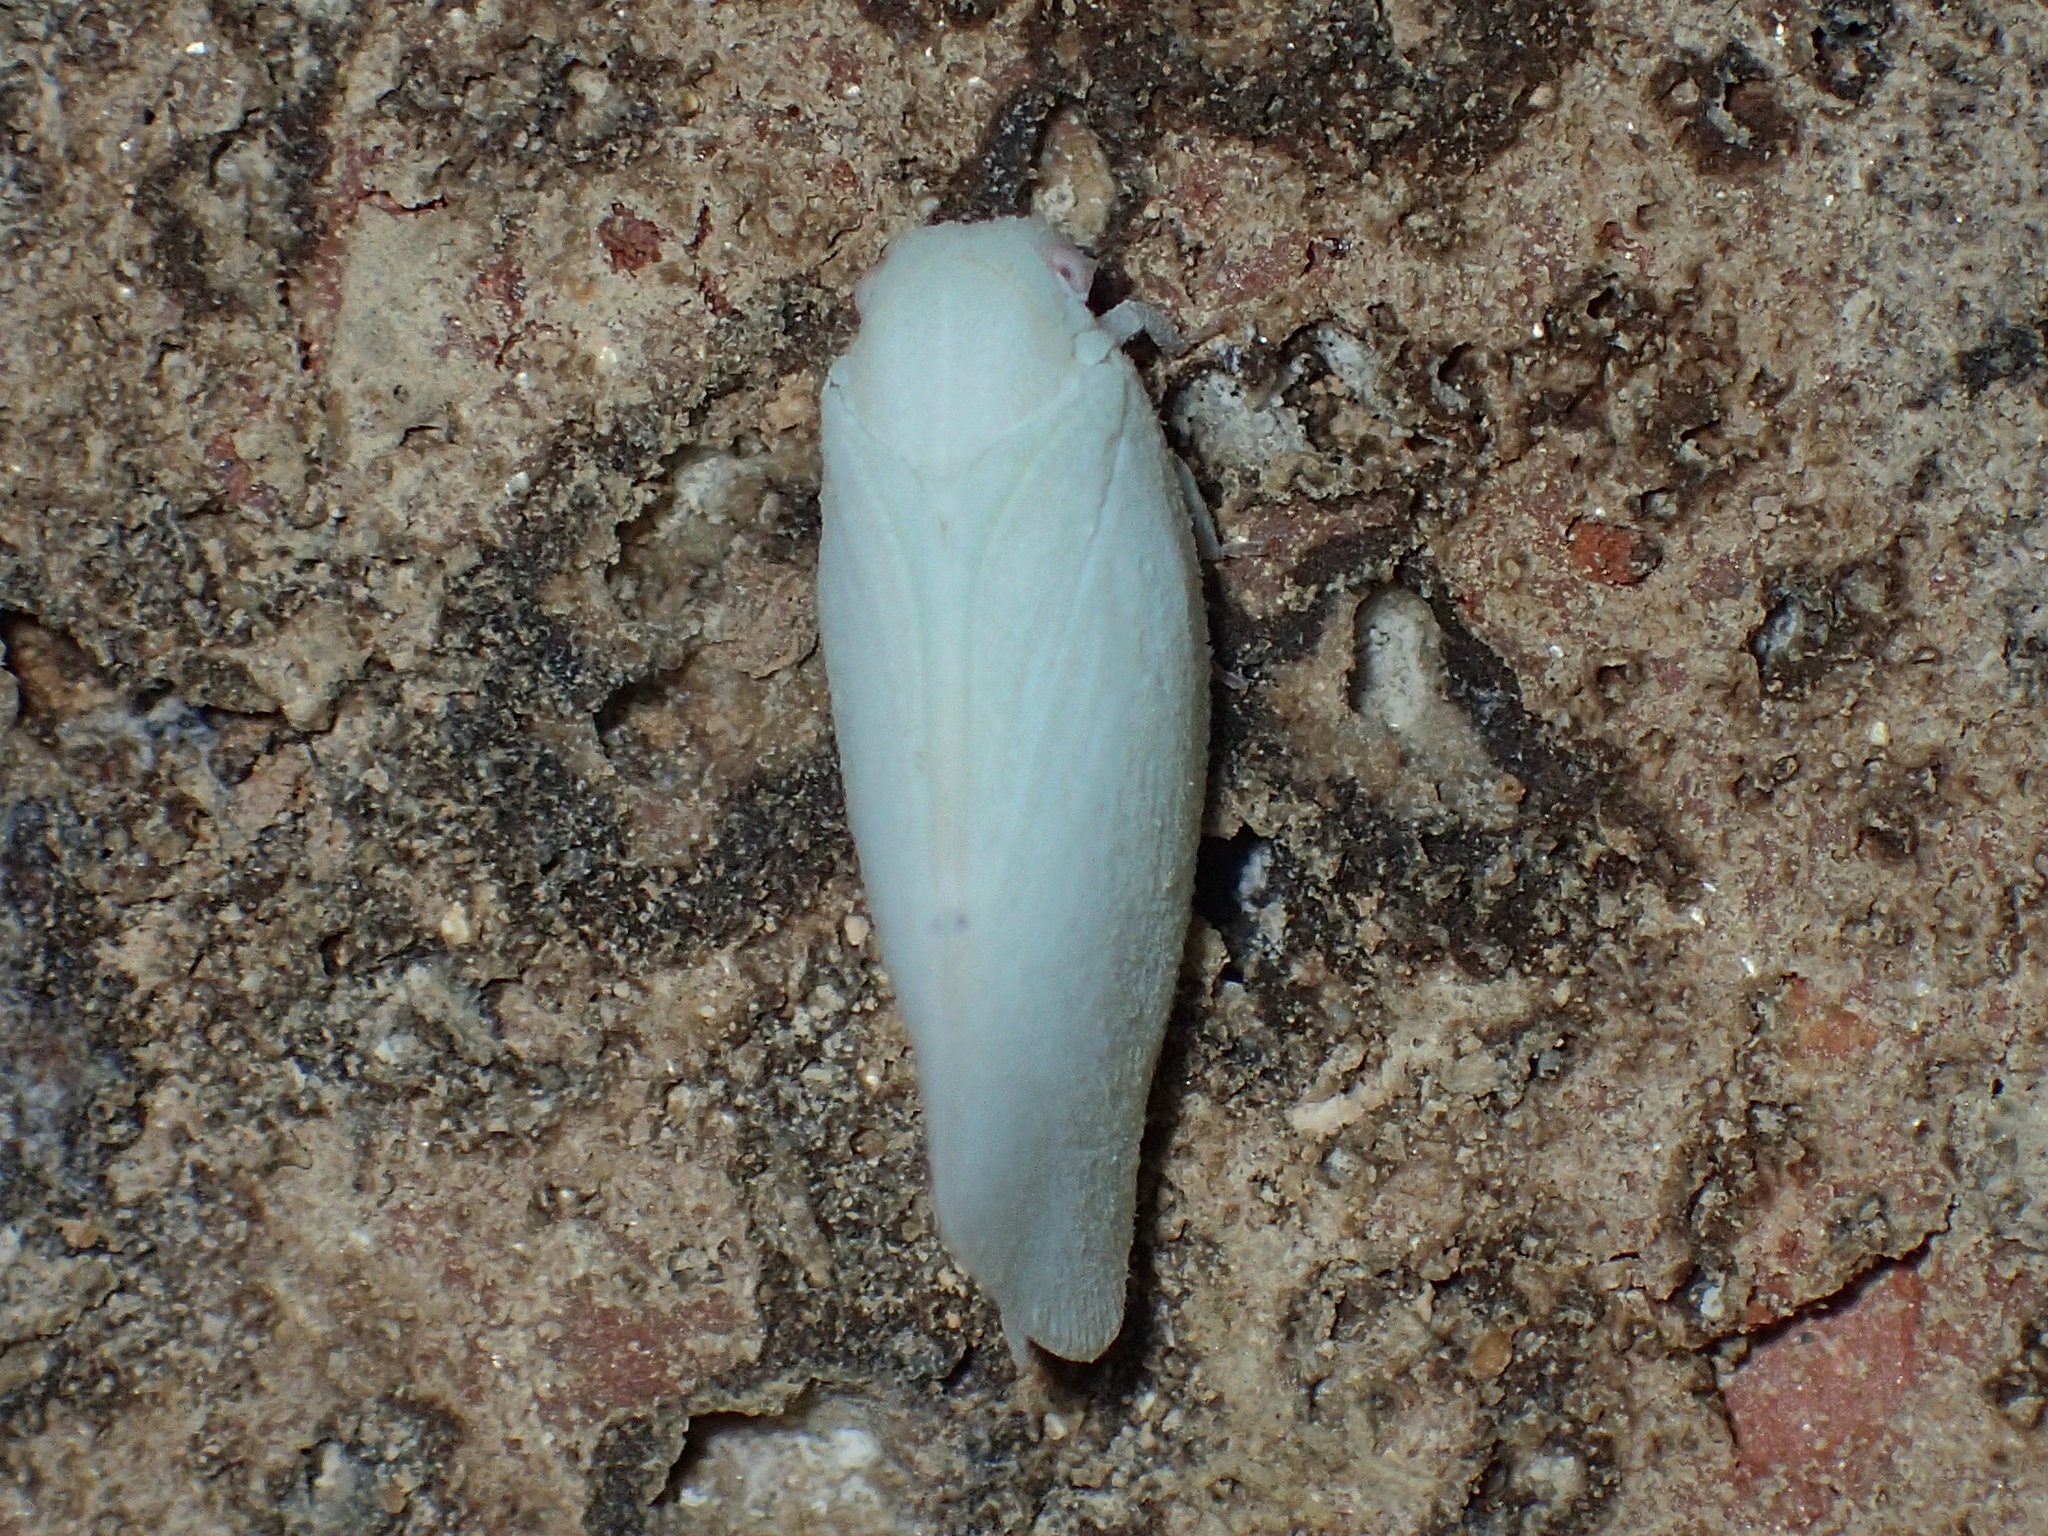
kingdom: Animalia
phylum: Arthropoda
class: Insecta
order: Hemiptera
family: Flatidae
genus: Flatormenis
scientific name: Flatormenis proxima
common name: Northern flatid planthopper
